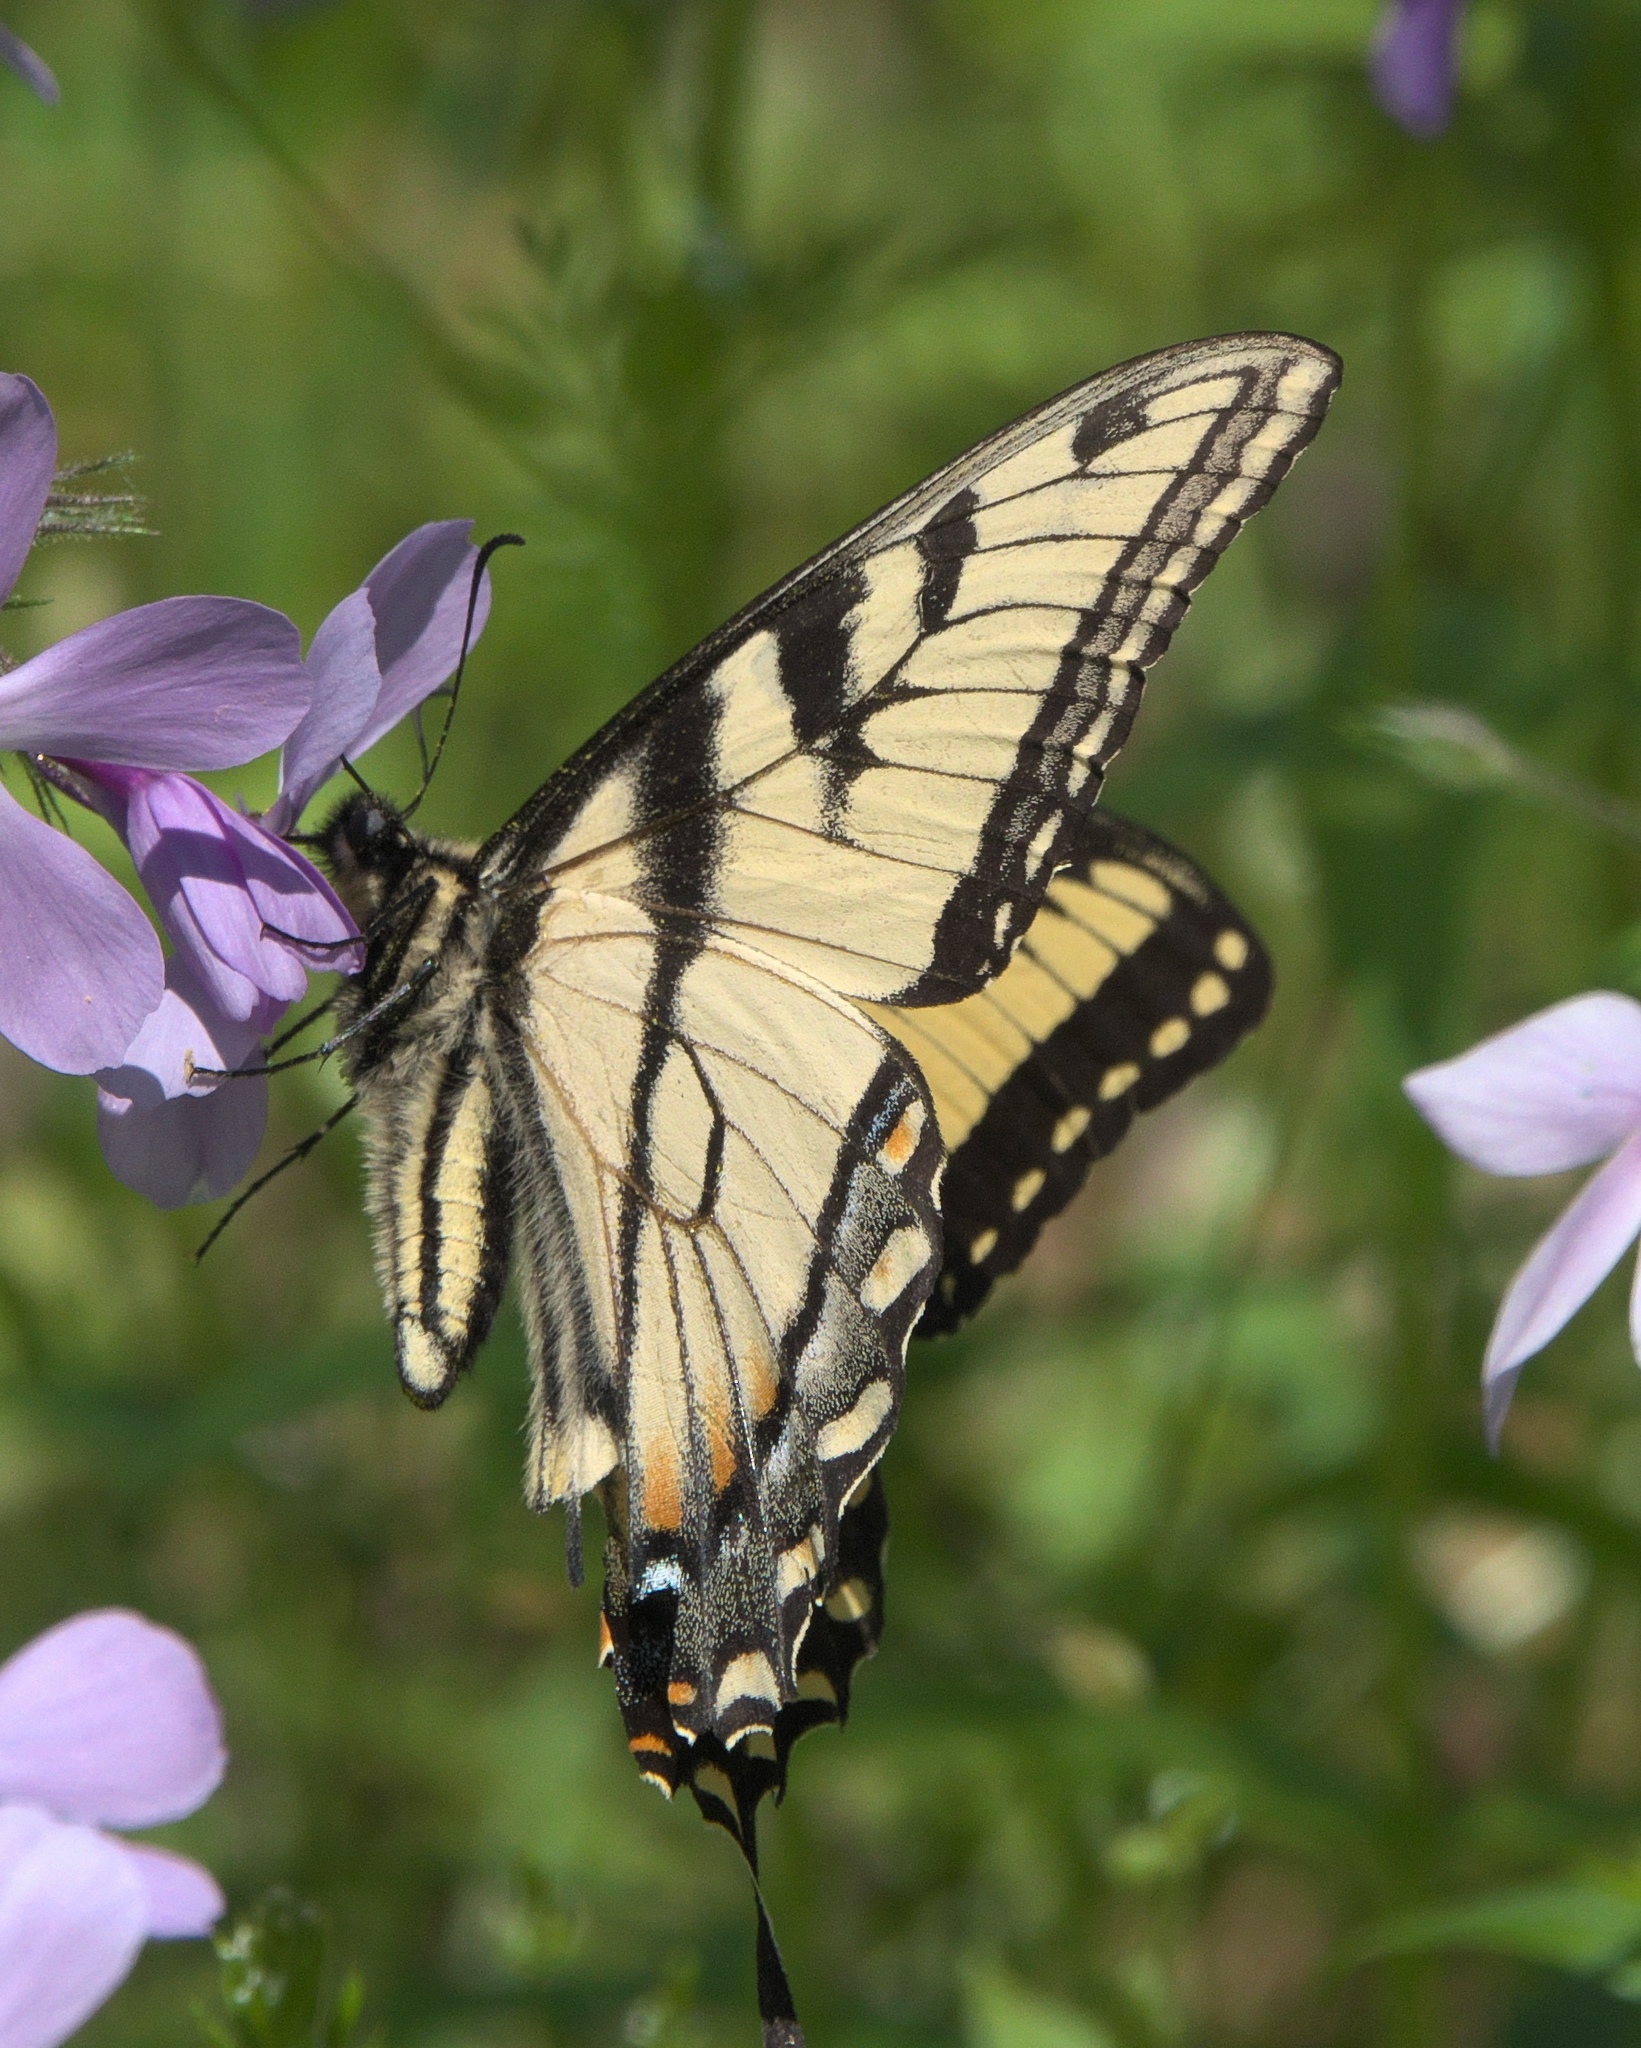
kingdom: Animalia
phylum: Arthropoda
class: Insecta
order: Lepidoptera
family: Papilionidae
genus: Papilio
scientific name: Papilio glaucus
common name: Tiger swallowtail
